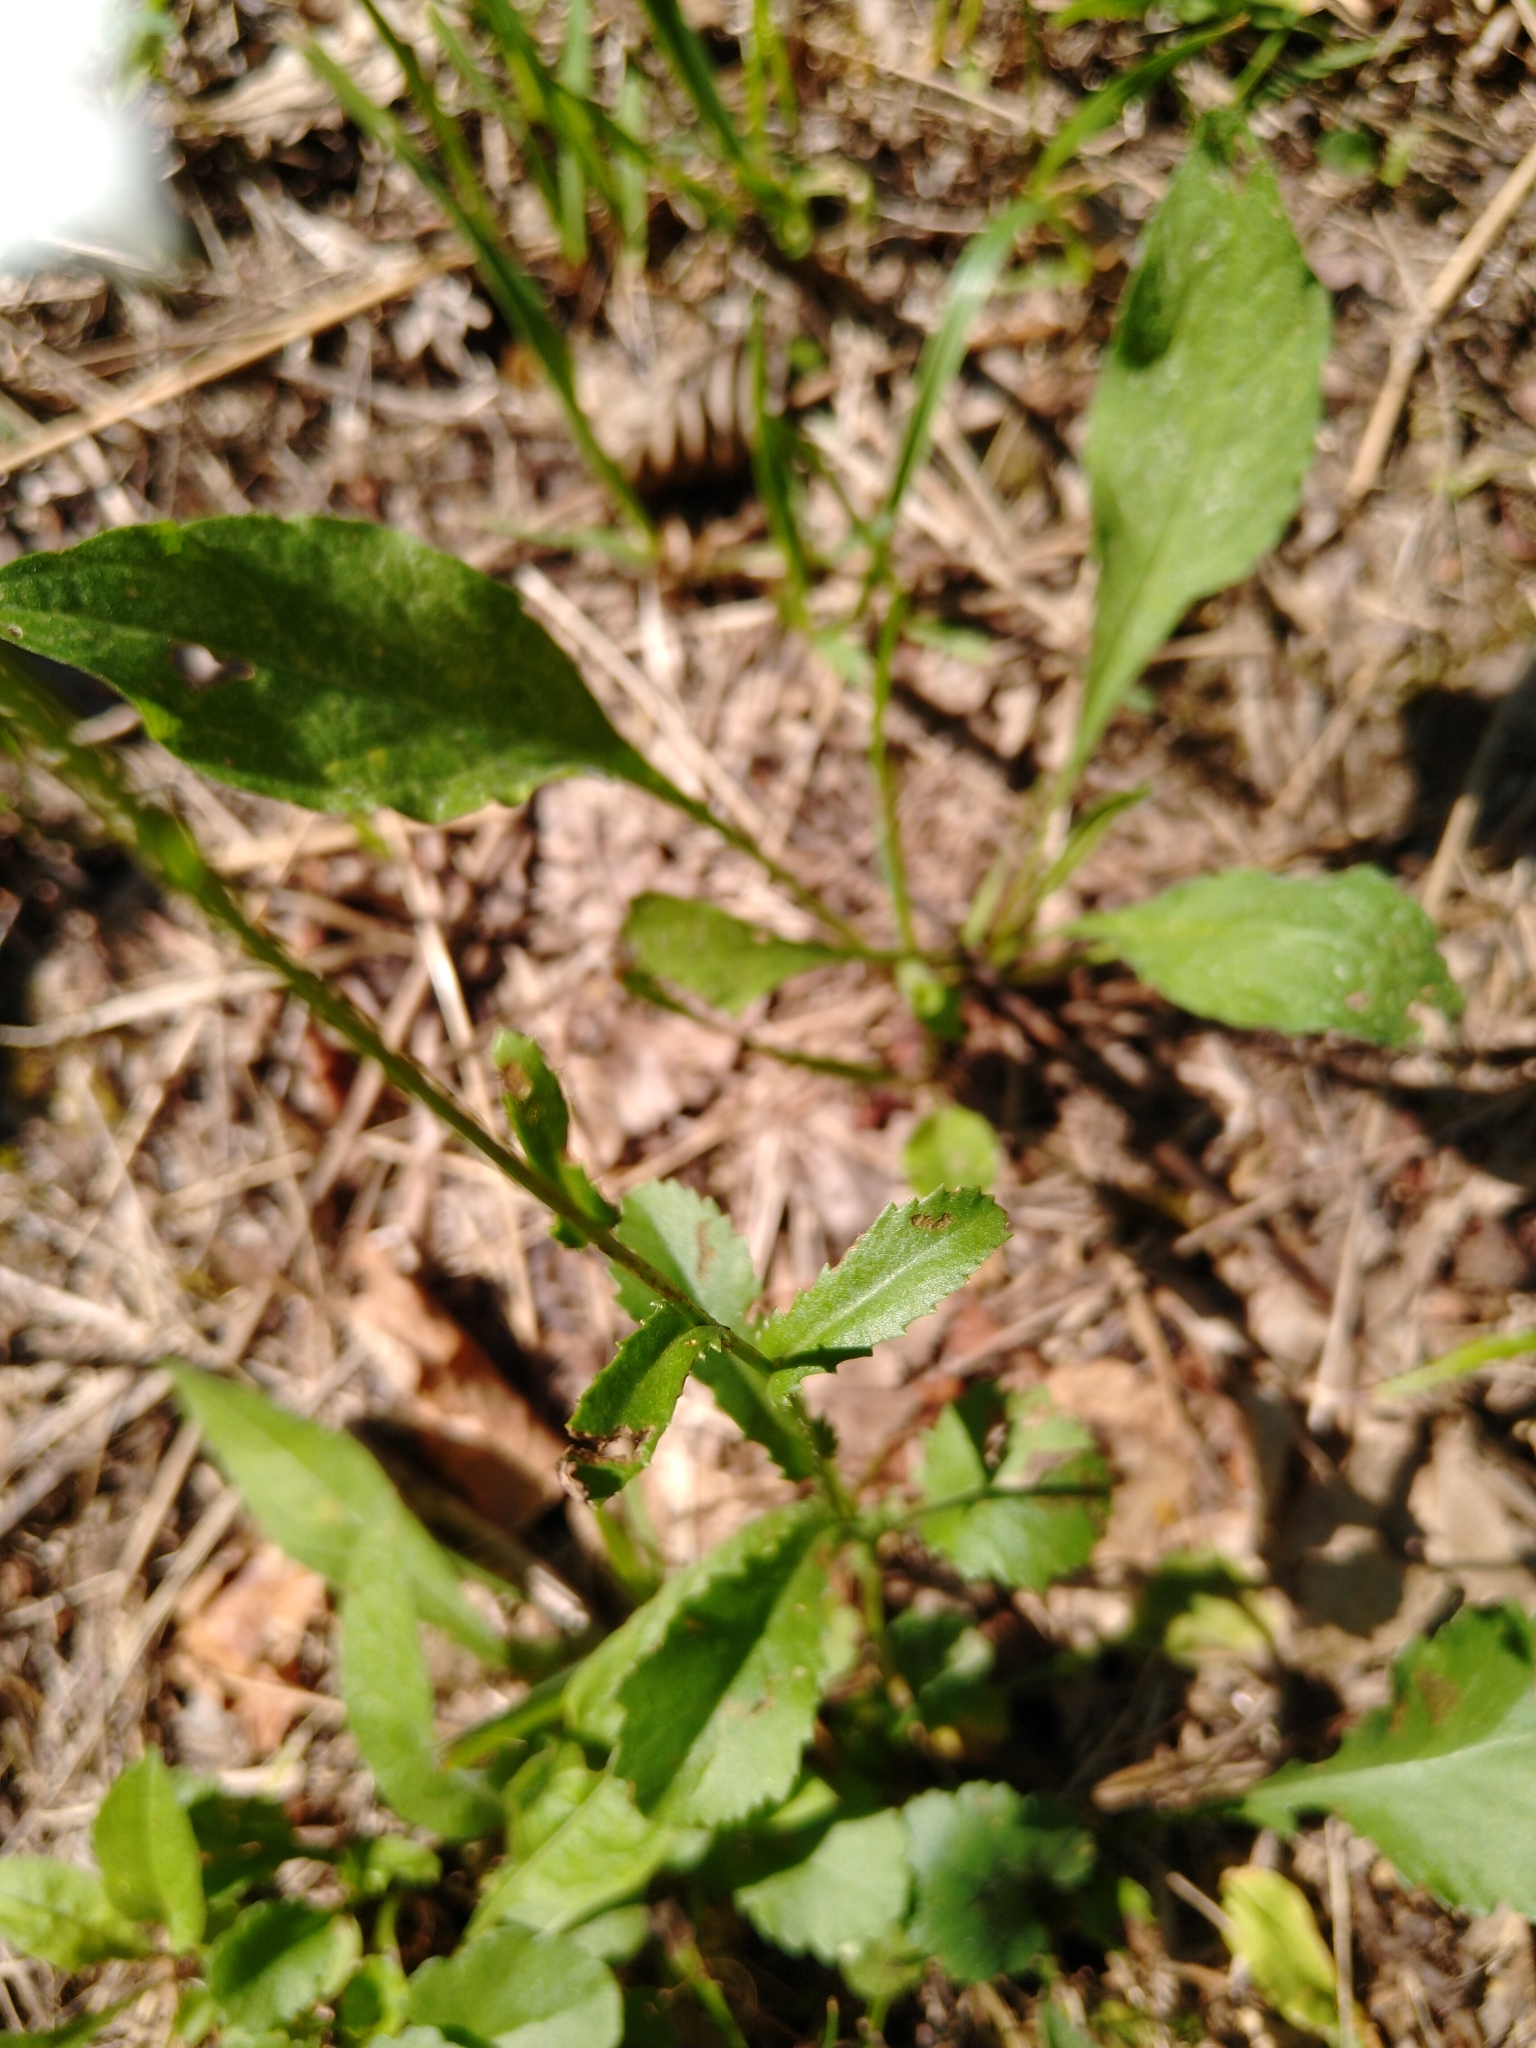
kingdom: Plantae
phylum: Tracheophyta
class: Magnoliopsida
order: Asterales
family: Asteraceae
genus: Leucanthemum
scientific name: Leucanthemum vulgare
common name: Oxeye daisy
